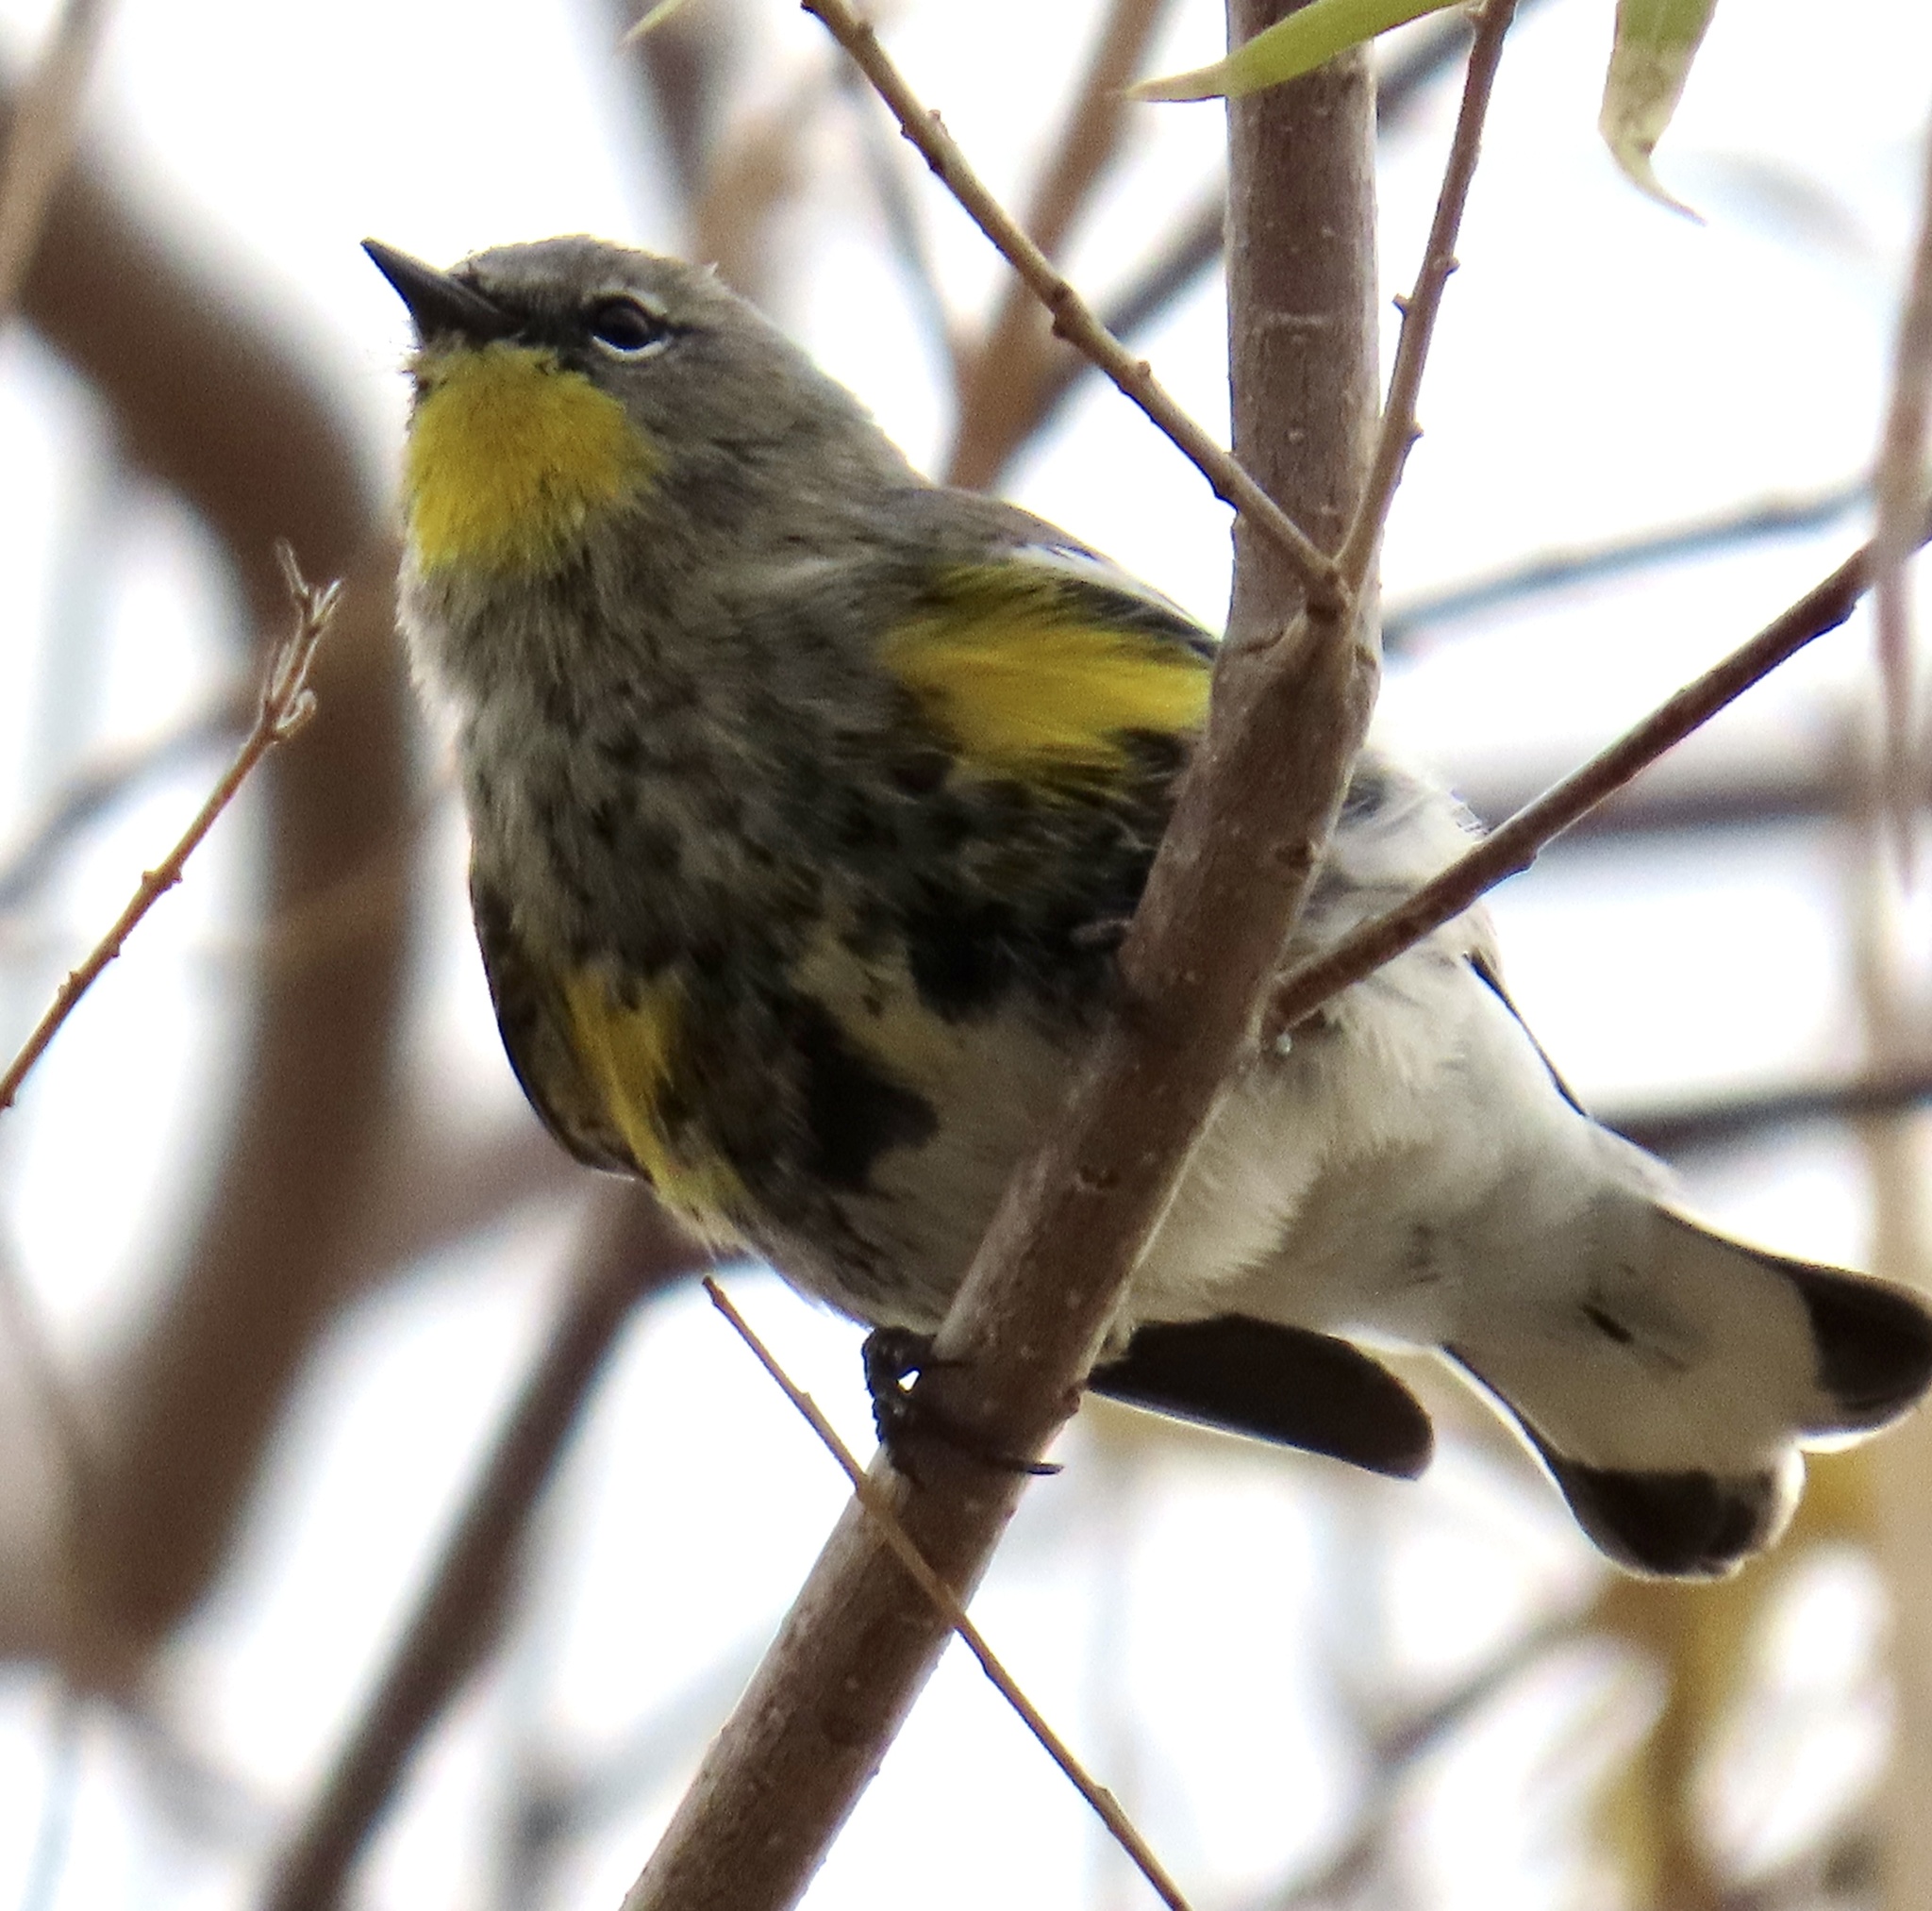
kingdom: Animalia
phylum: Chordata
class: Aves
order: Passeriformes
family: Parulidae
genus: Setophaga
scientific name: Setophaga auduboni
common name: Audubon's warbler
